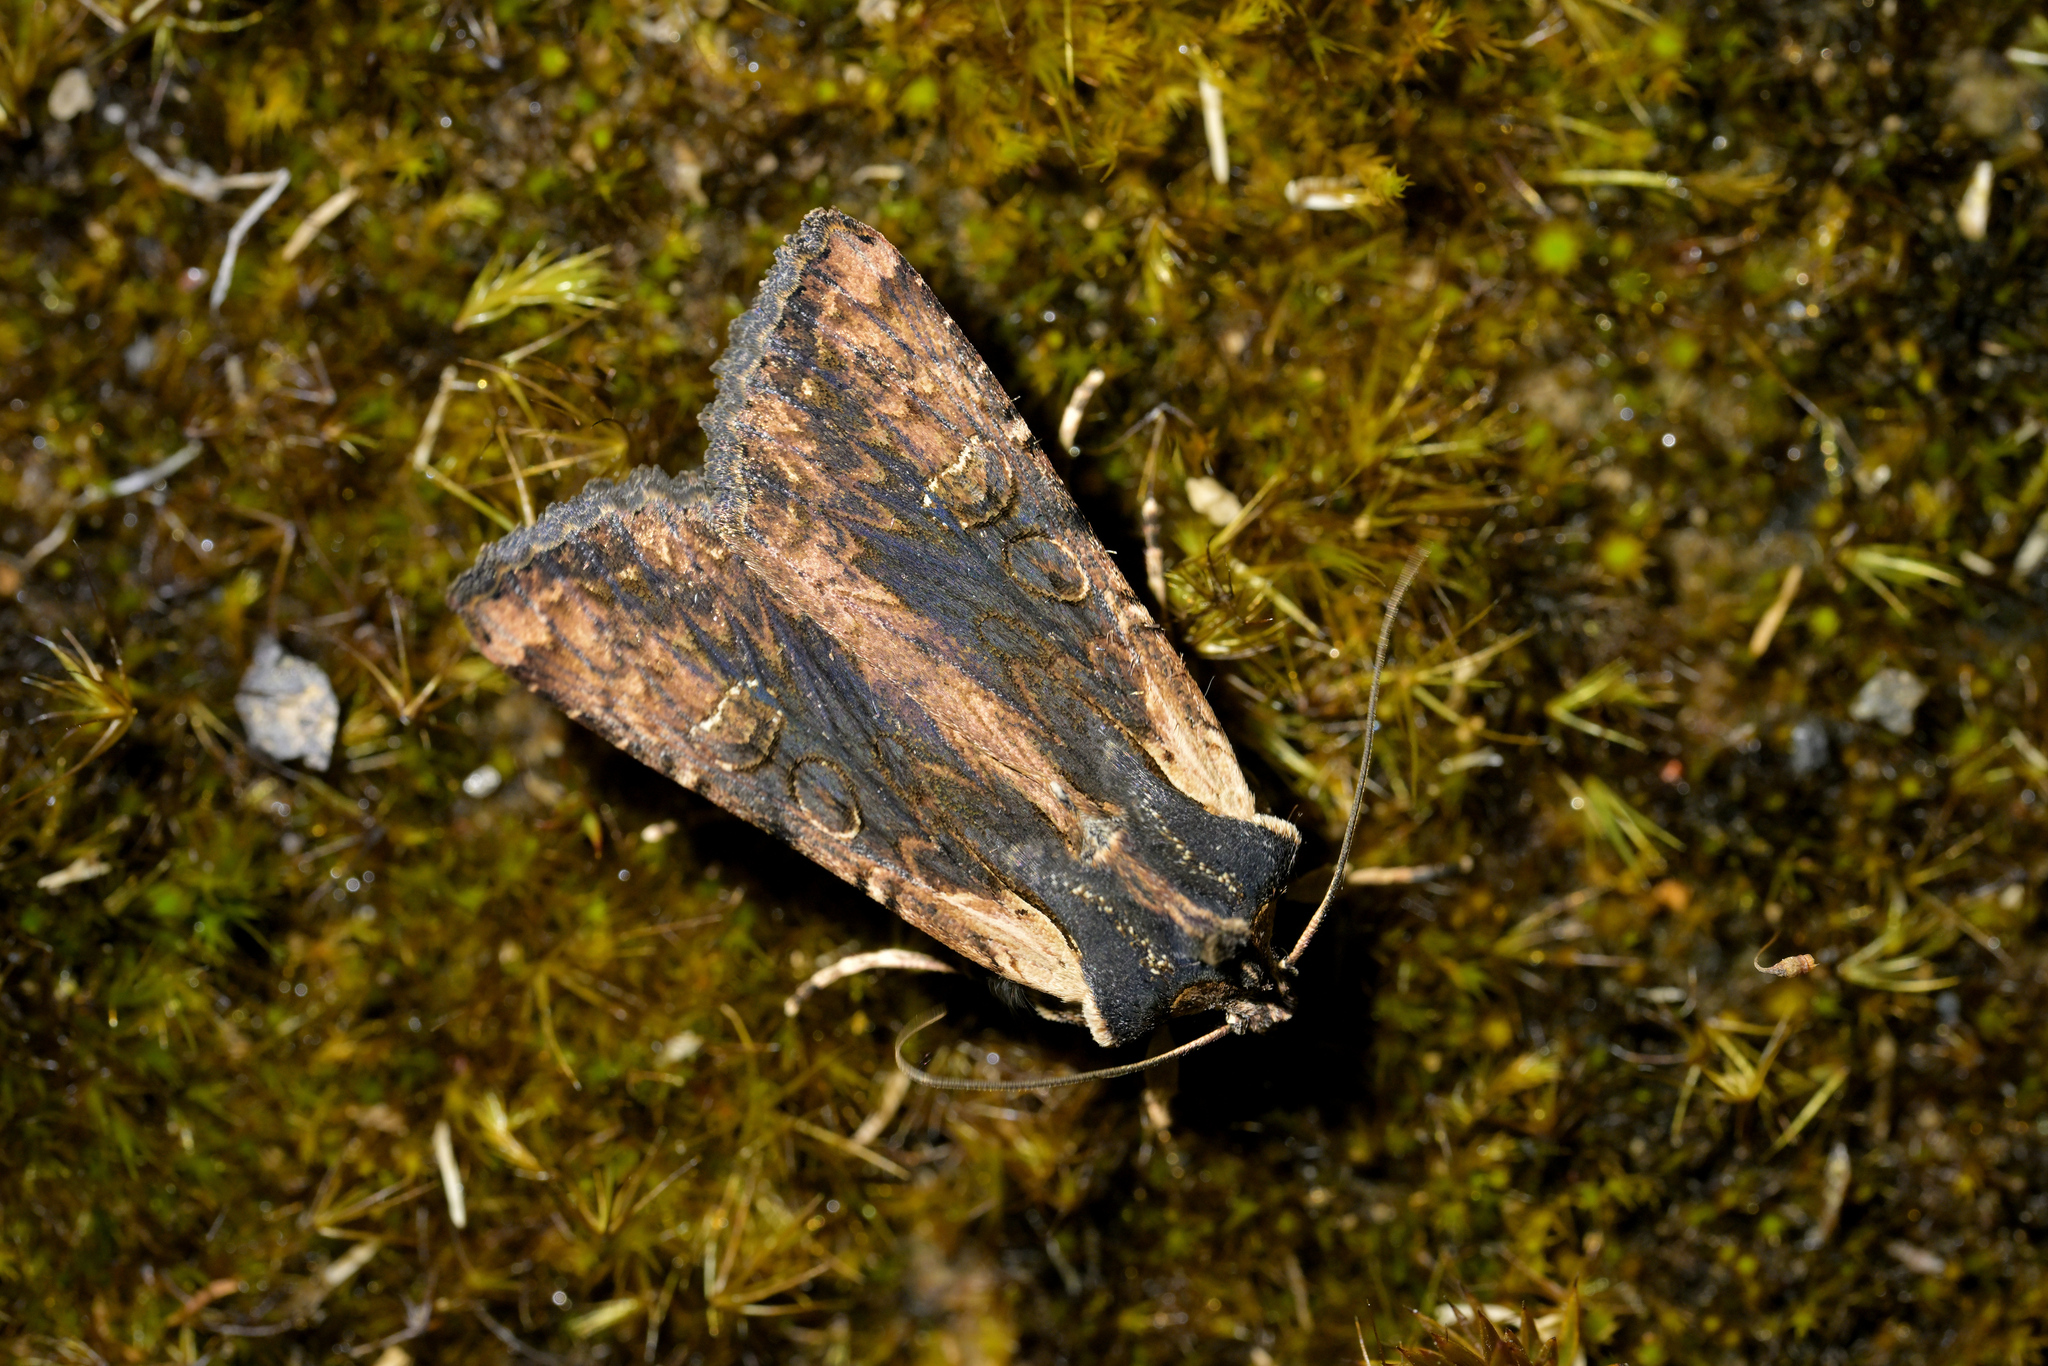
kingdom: Animalia
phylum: Arthropoda
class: Insecta
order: Lepidoptera
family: Noctuidae
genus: Ichneutica
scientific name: Ichneutica omoplaca
